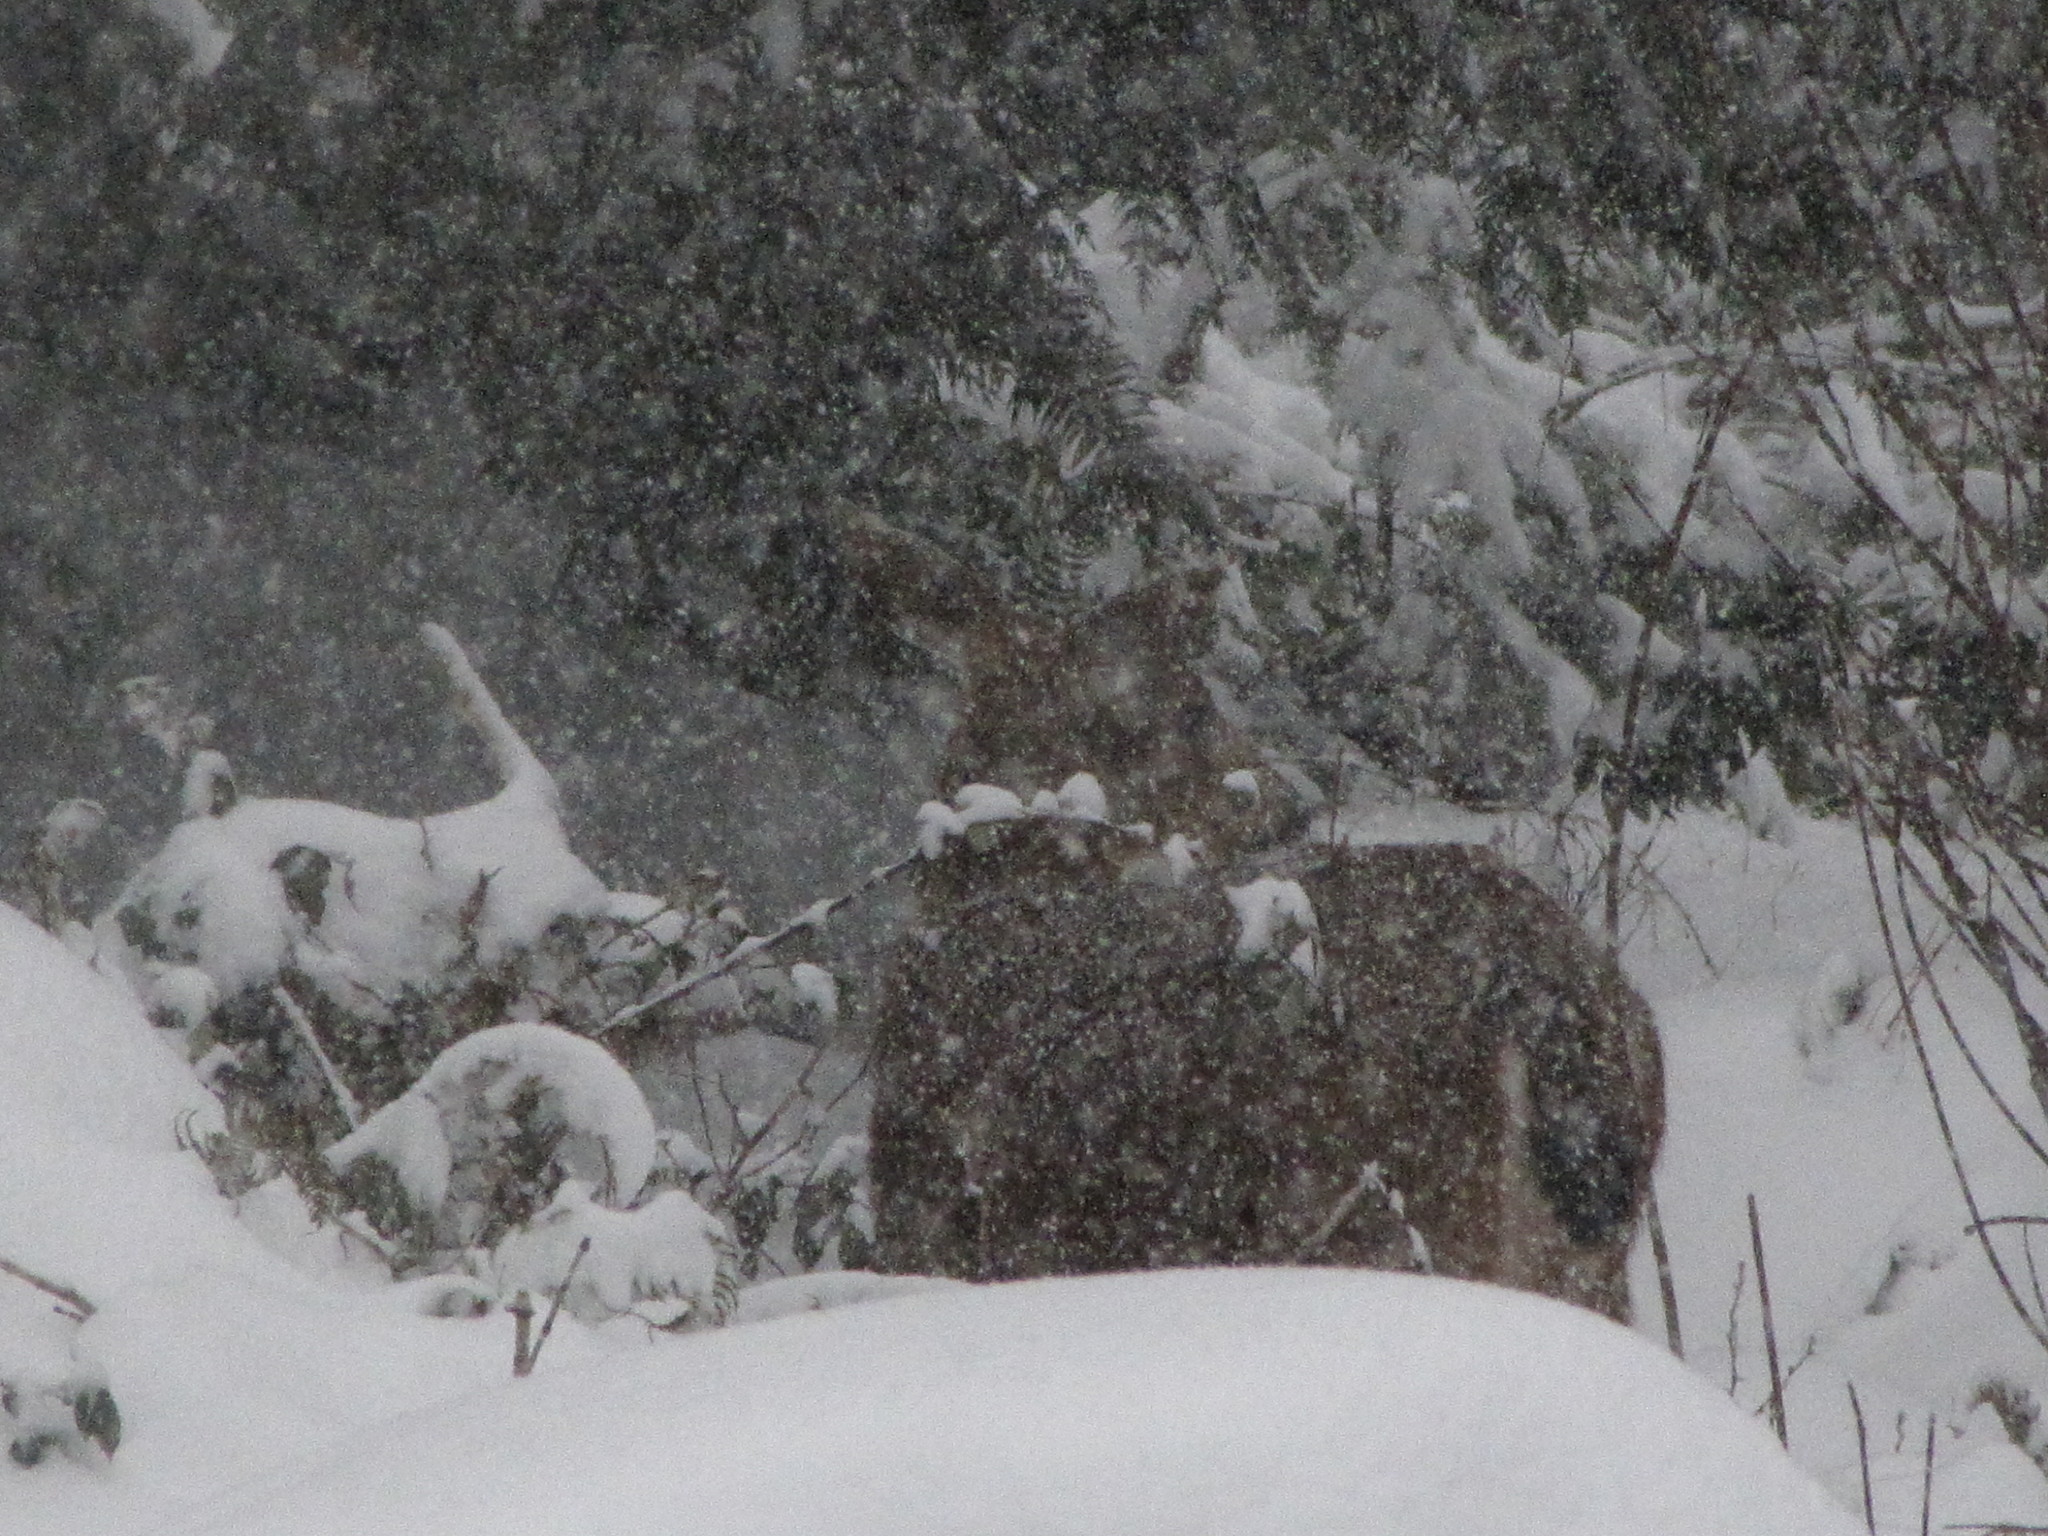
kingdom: Animalia
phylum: Chordata
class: Mammalia
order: Artiodactyla
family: Cervidae
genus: Odocoileus
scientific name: Odocoileus hemionus
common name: Mule deer
